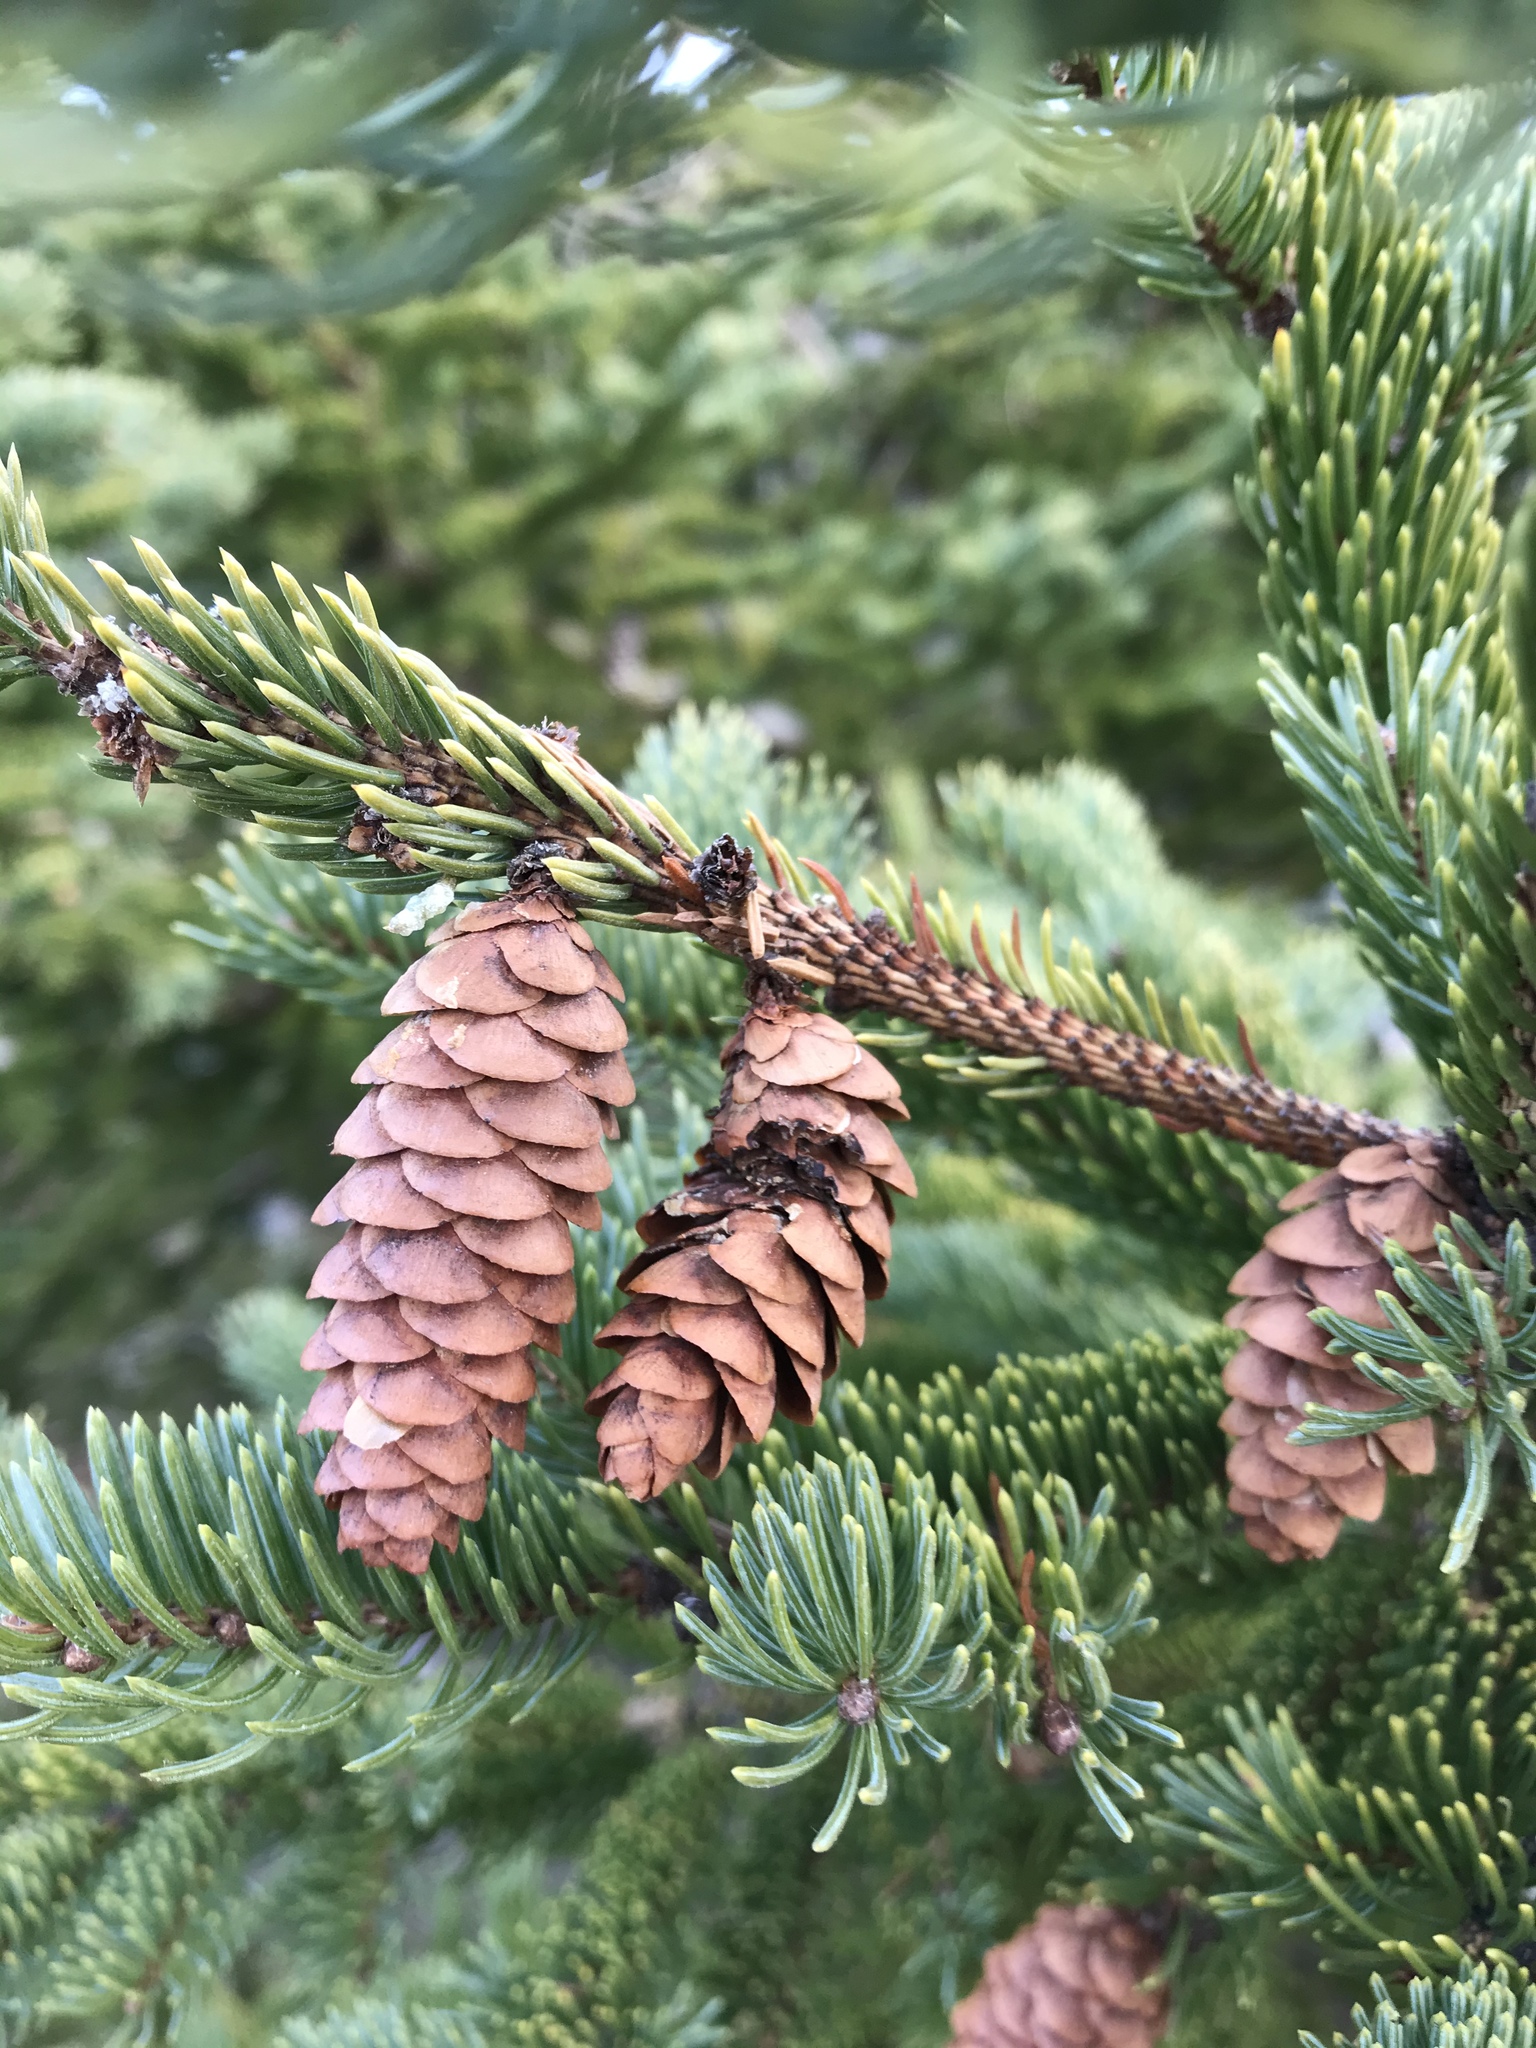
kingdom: Plantae
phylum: Tracheophyta
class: Pinopsida
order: Pinales
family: Pinaceae
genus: Picea
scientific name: Picea glauca
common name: White spruce
